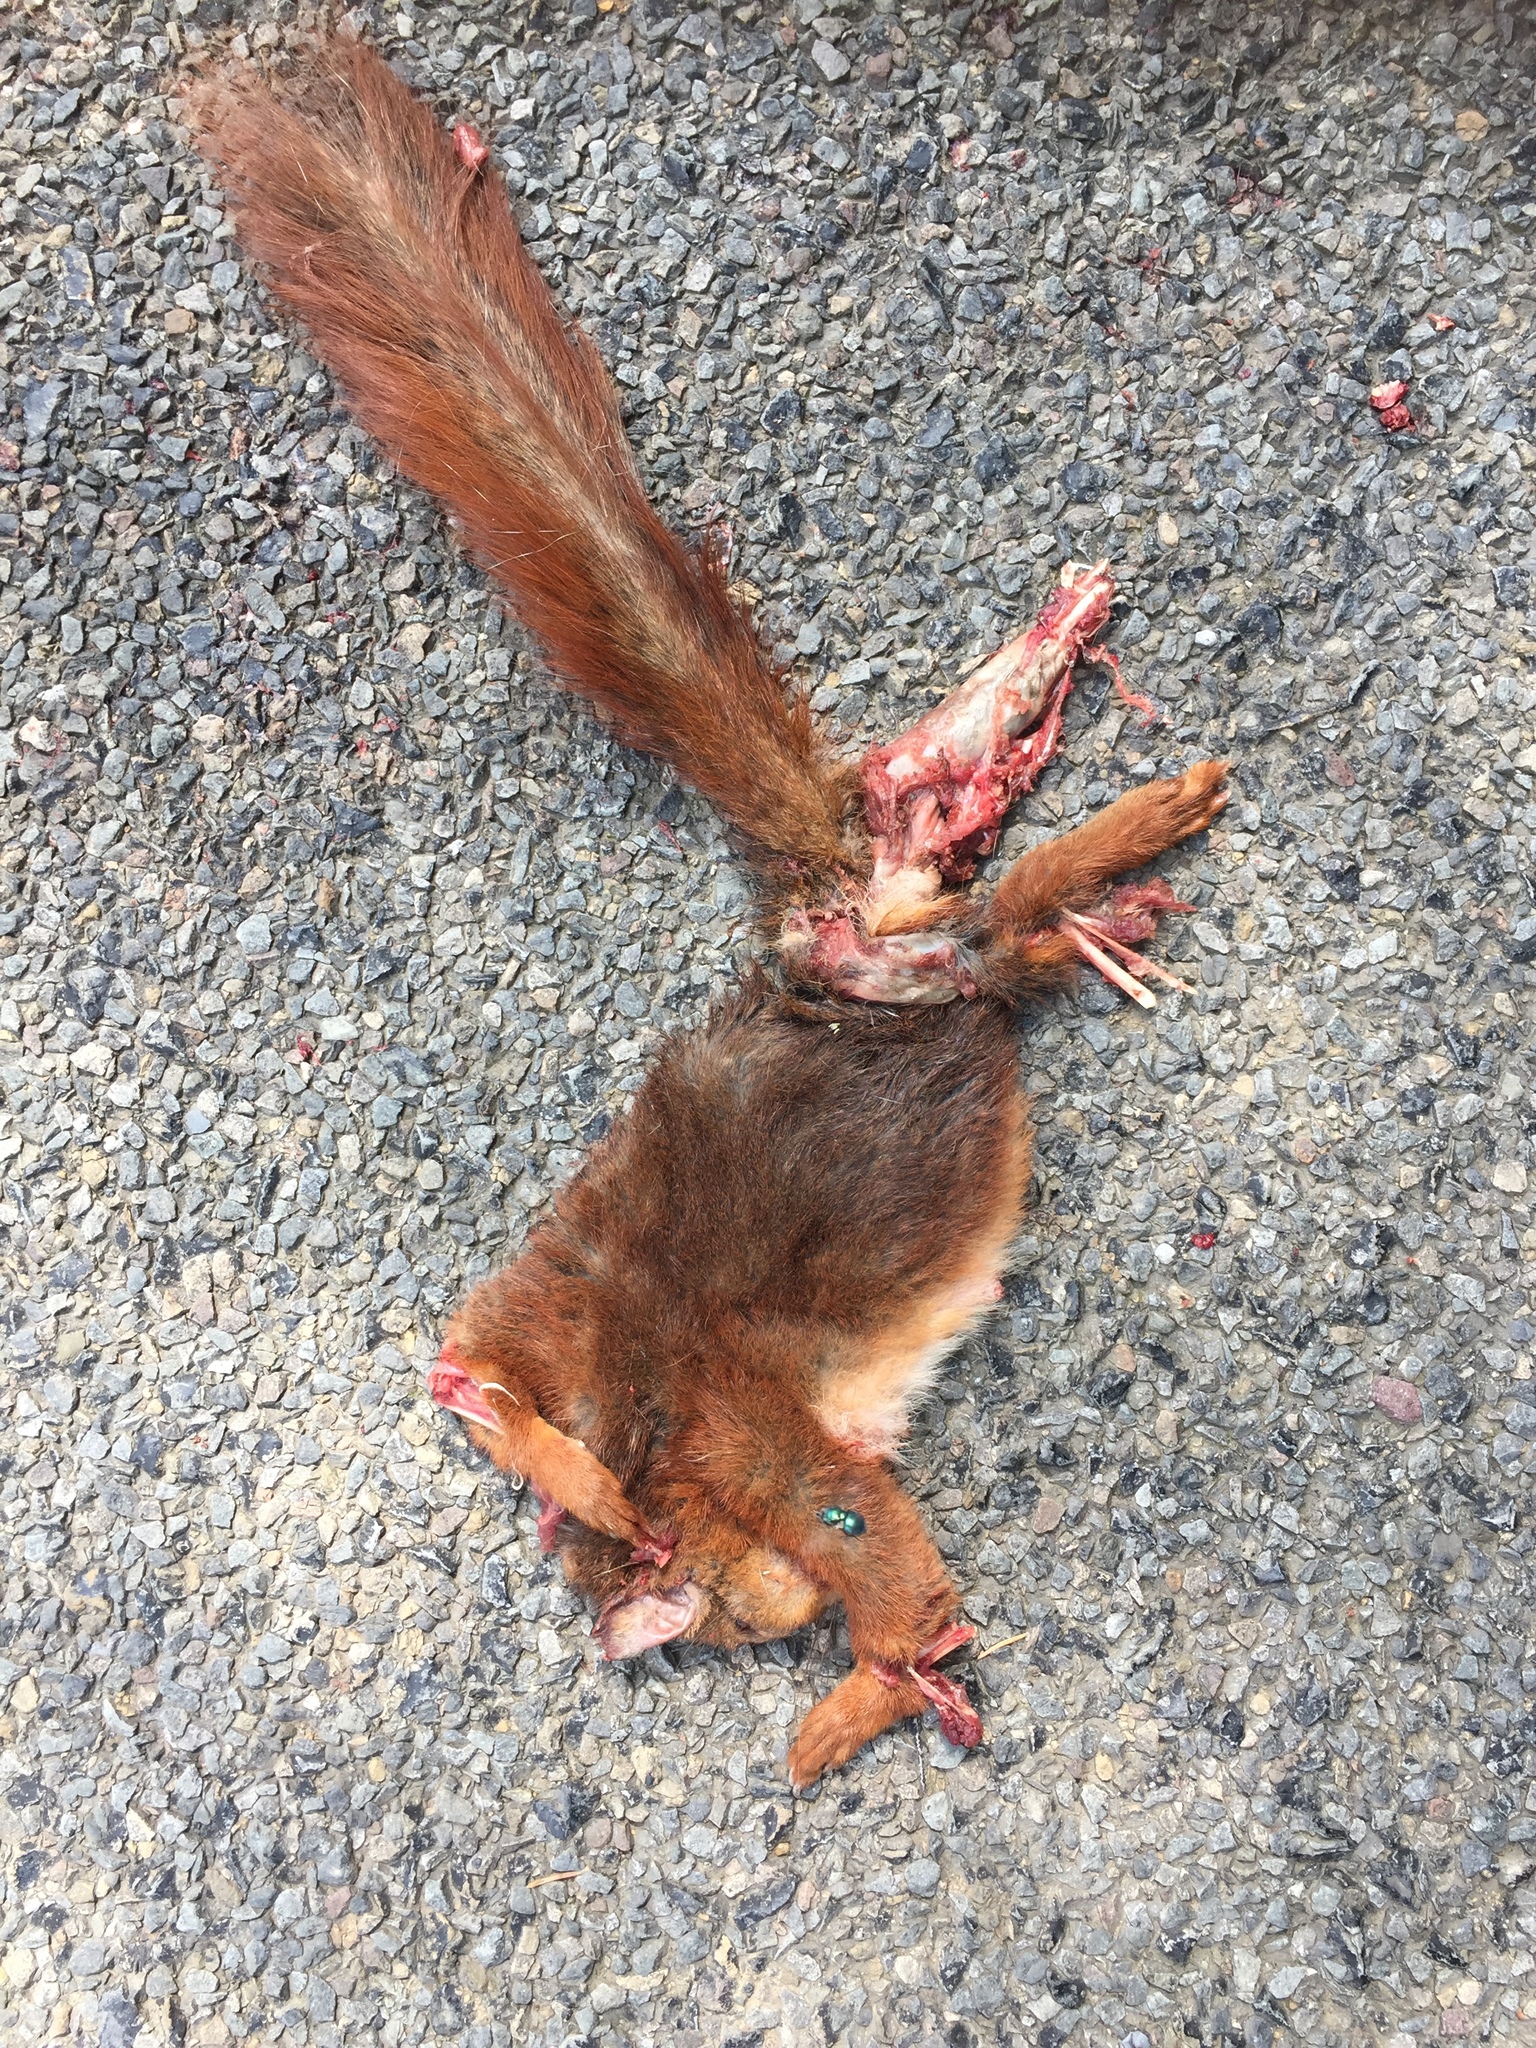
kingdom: Animalia
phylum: Chordata
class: Mammalia
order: Rodentia
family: Sciuridae
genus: Sciurus
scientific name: Sciurus vulgaris
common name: Eurasian red squirrel
